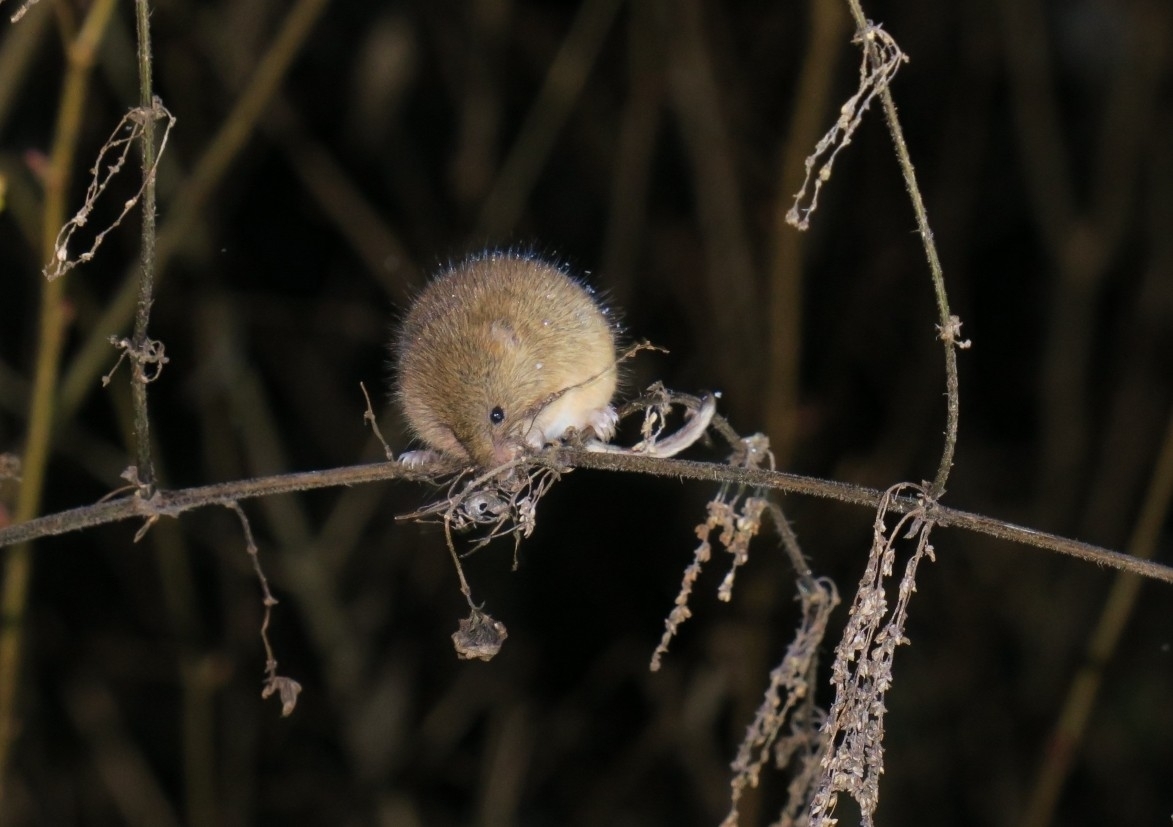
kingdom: Animalia
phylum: Chordata
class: Mammalia
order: Rodentia
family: Muridae
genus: Micromys
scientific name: Micromys minutus
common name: Harvest mouse
